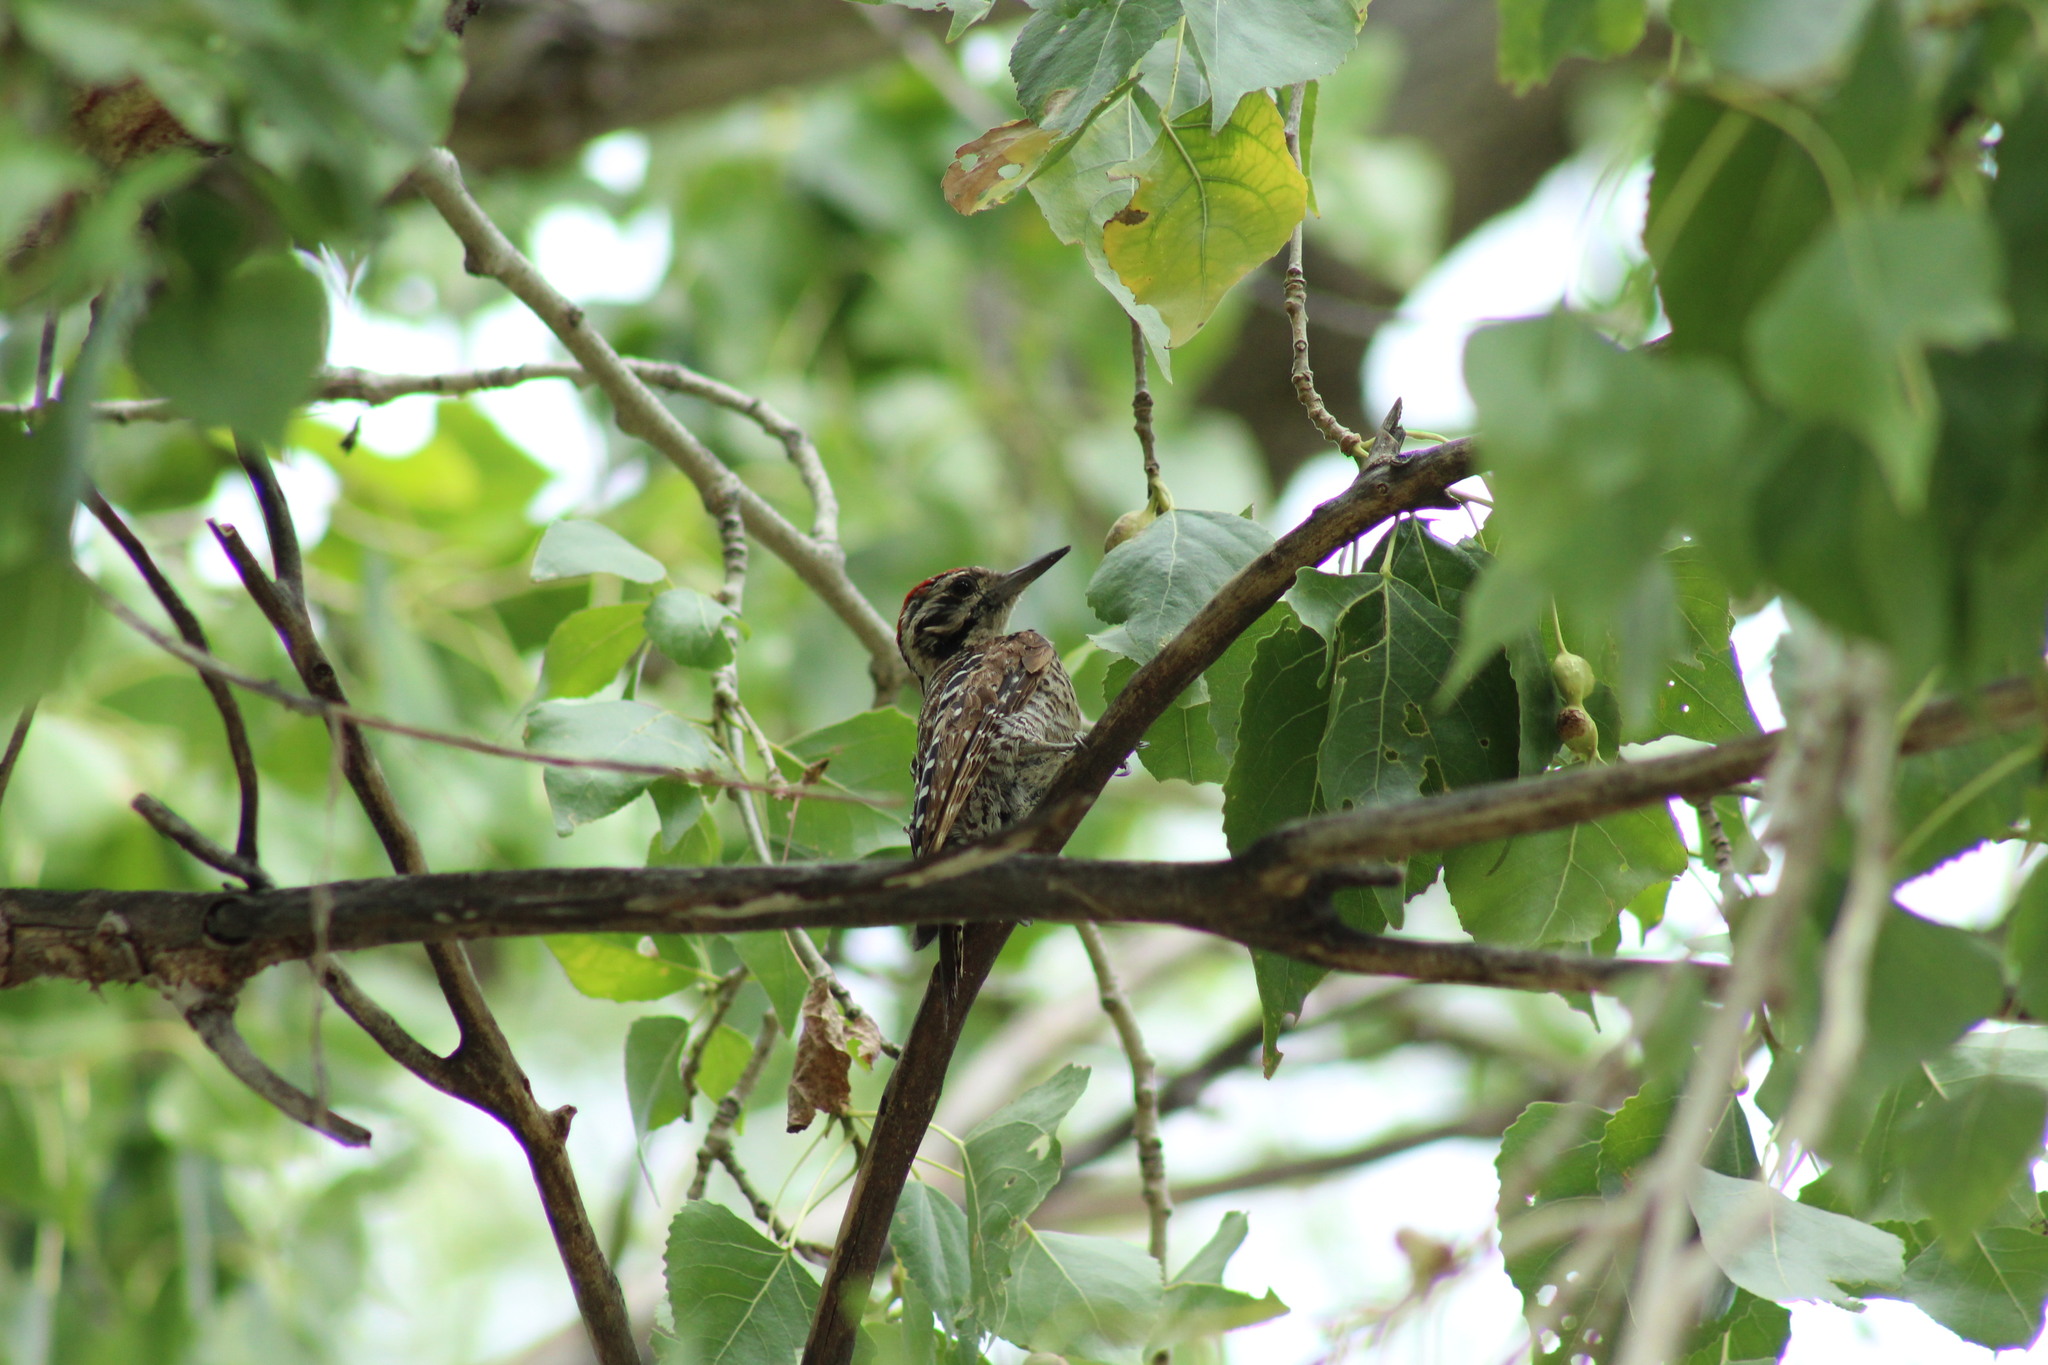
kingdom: Animalia
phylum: Chordata
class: Aves
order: Piciformes
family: Picidae
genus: Dryobates
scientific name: Dryobates scalaris
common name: Ladder-backed woodpecker
